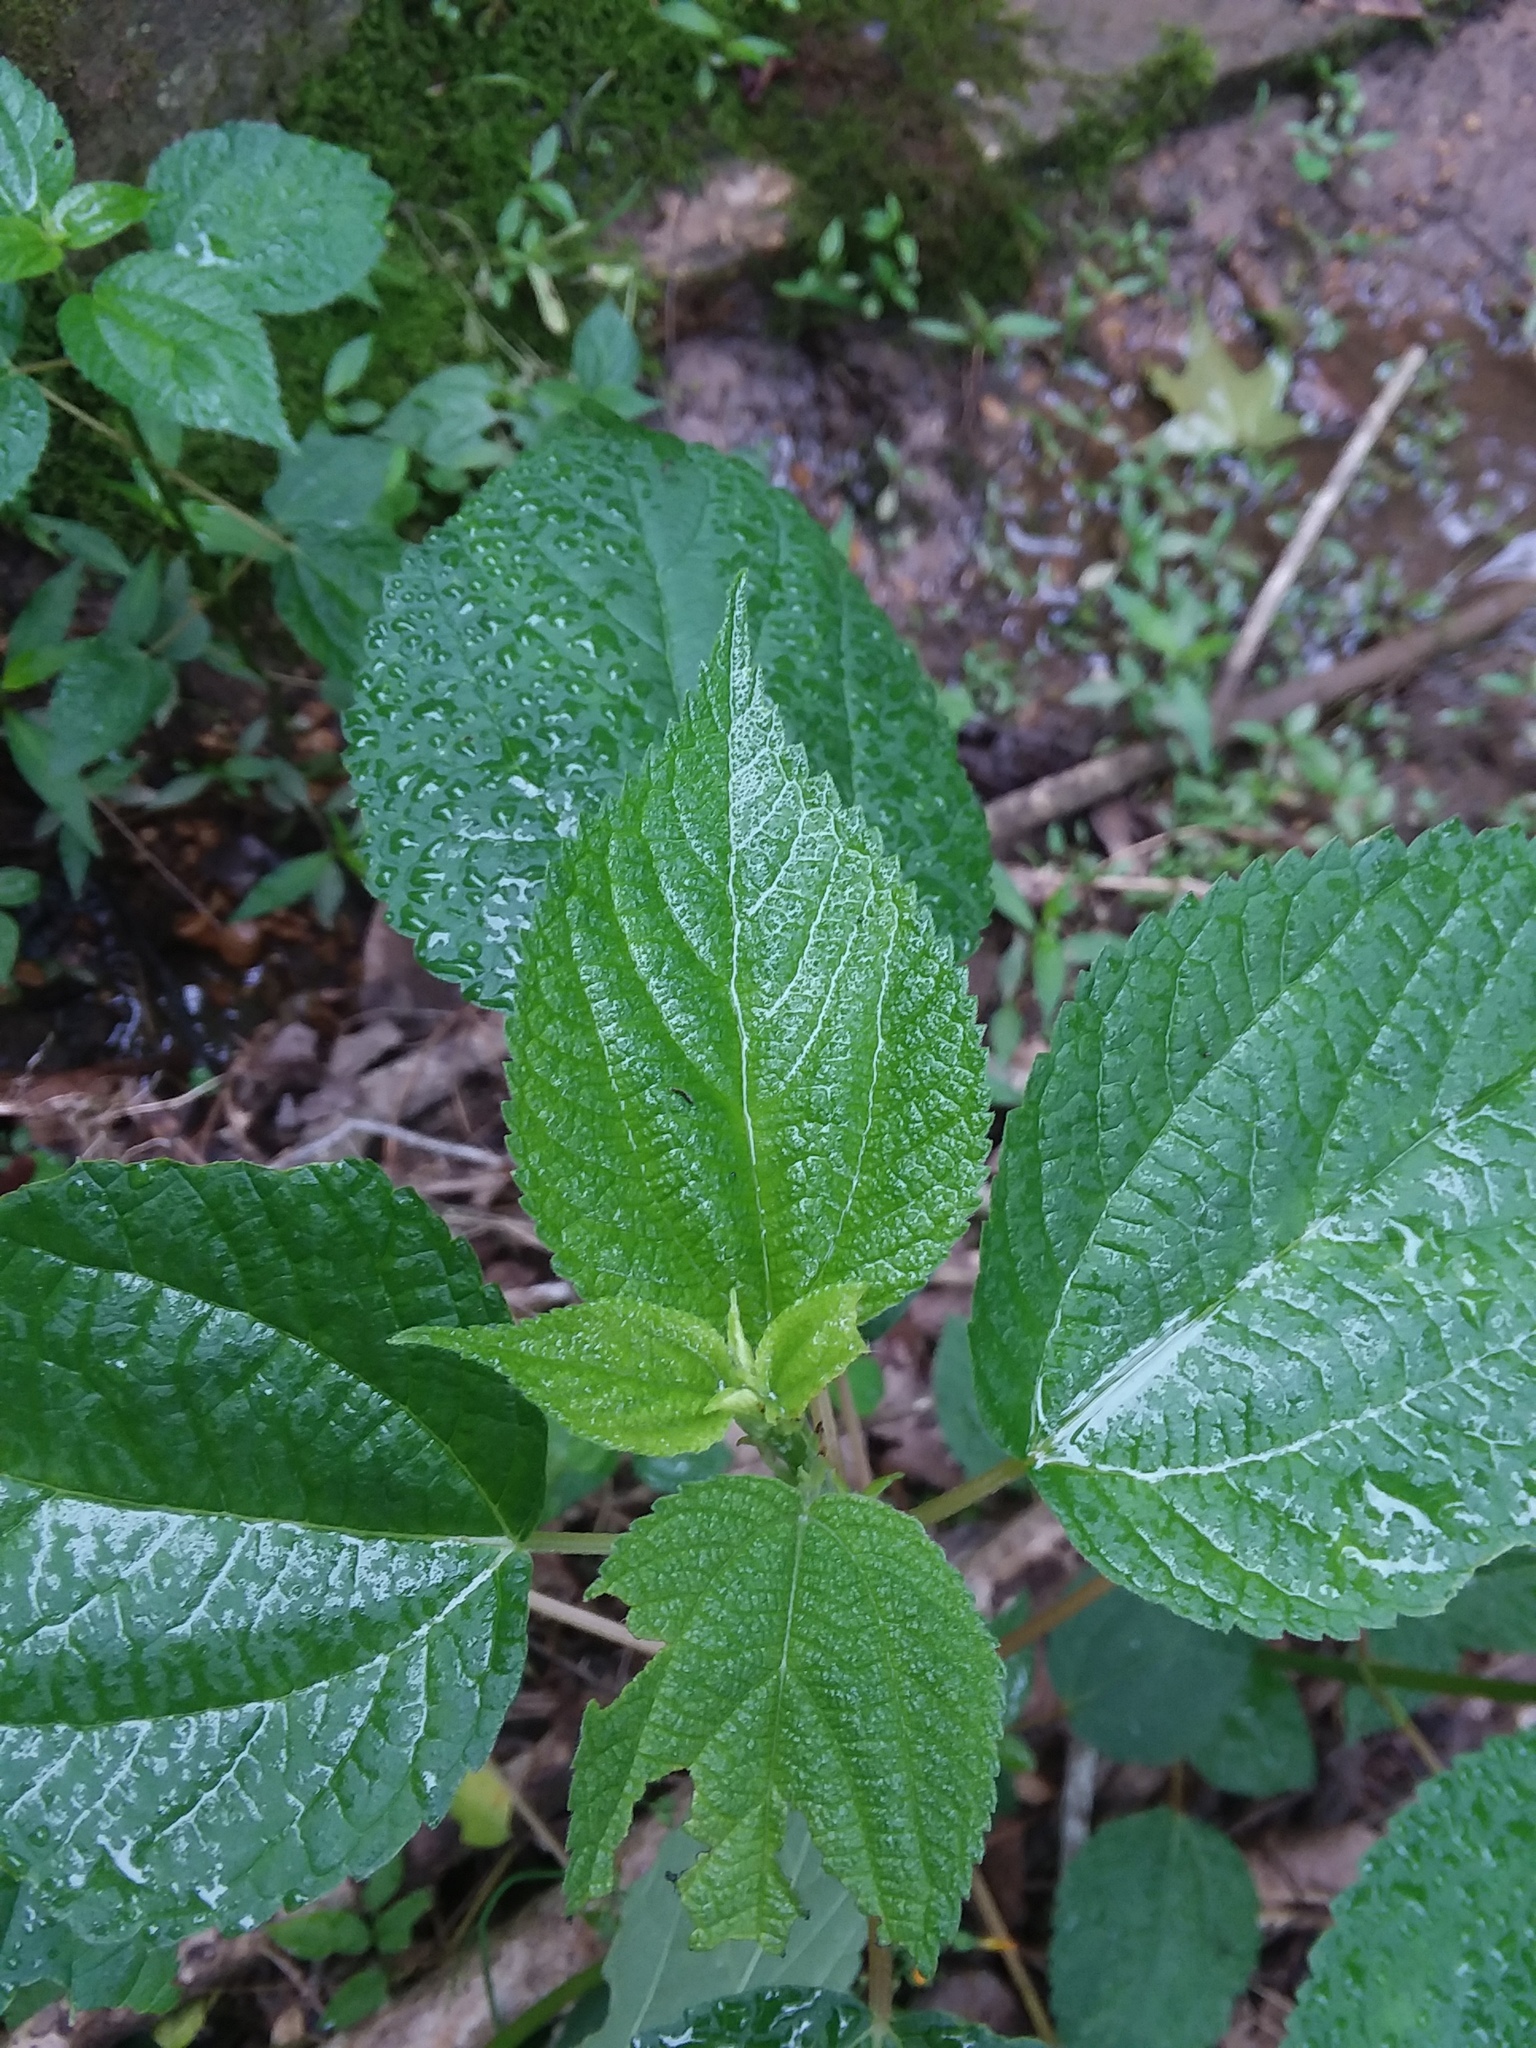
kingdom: Plantae
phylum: Tracheophyta
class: Magnoliopsida
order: Rosales
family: Urticaceae
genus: Boehmeria
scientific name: Boehmeria cylindrica
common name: Bog-hemp
